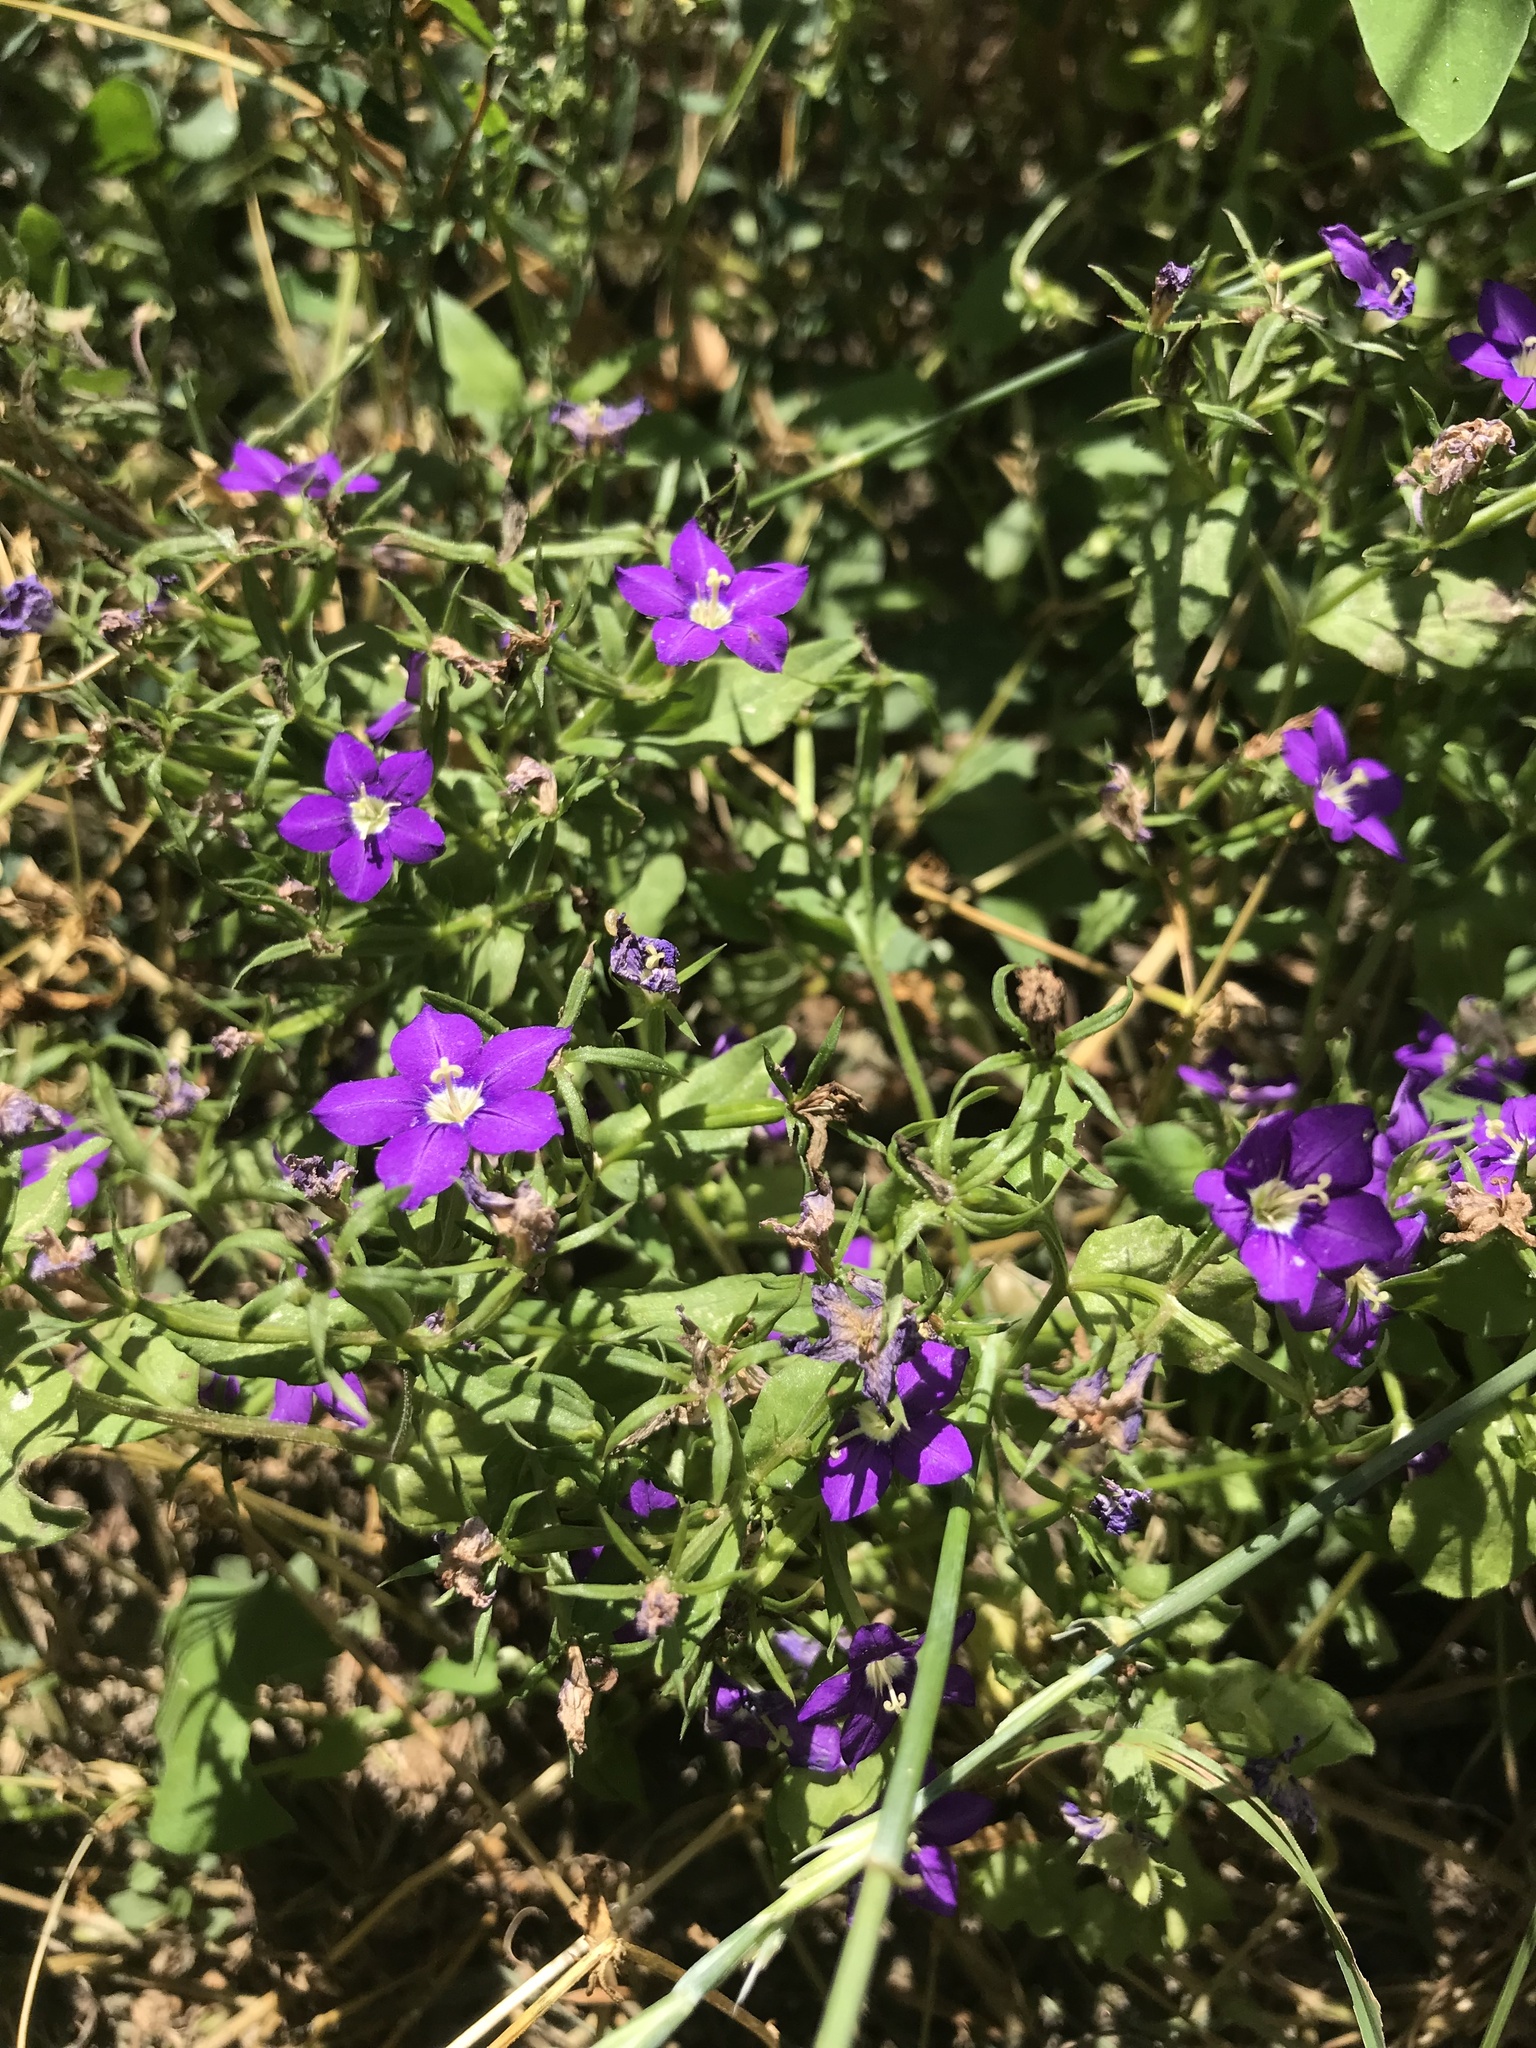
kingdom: Plantae
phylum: Tracheophyta
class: Magnoliopsida
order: Asterales
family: Campanulaceae
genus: Legousia
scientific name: Legousia speculum-veneris
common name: Large venus's-looking-glass
